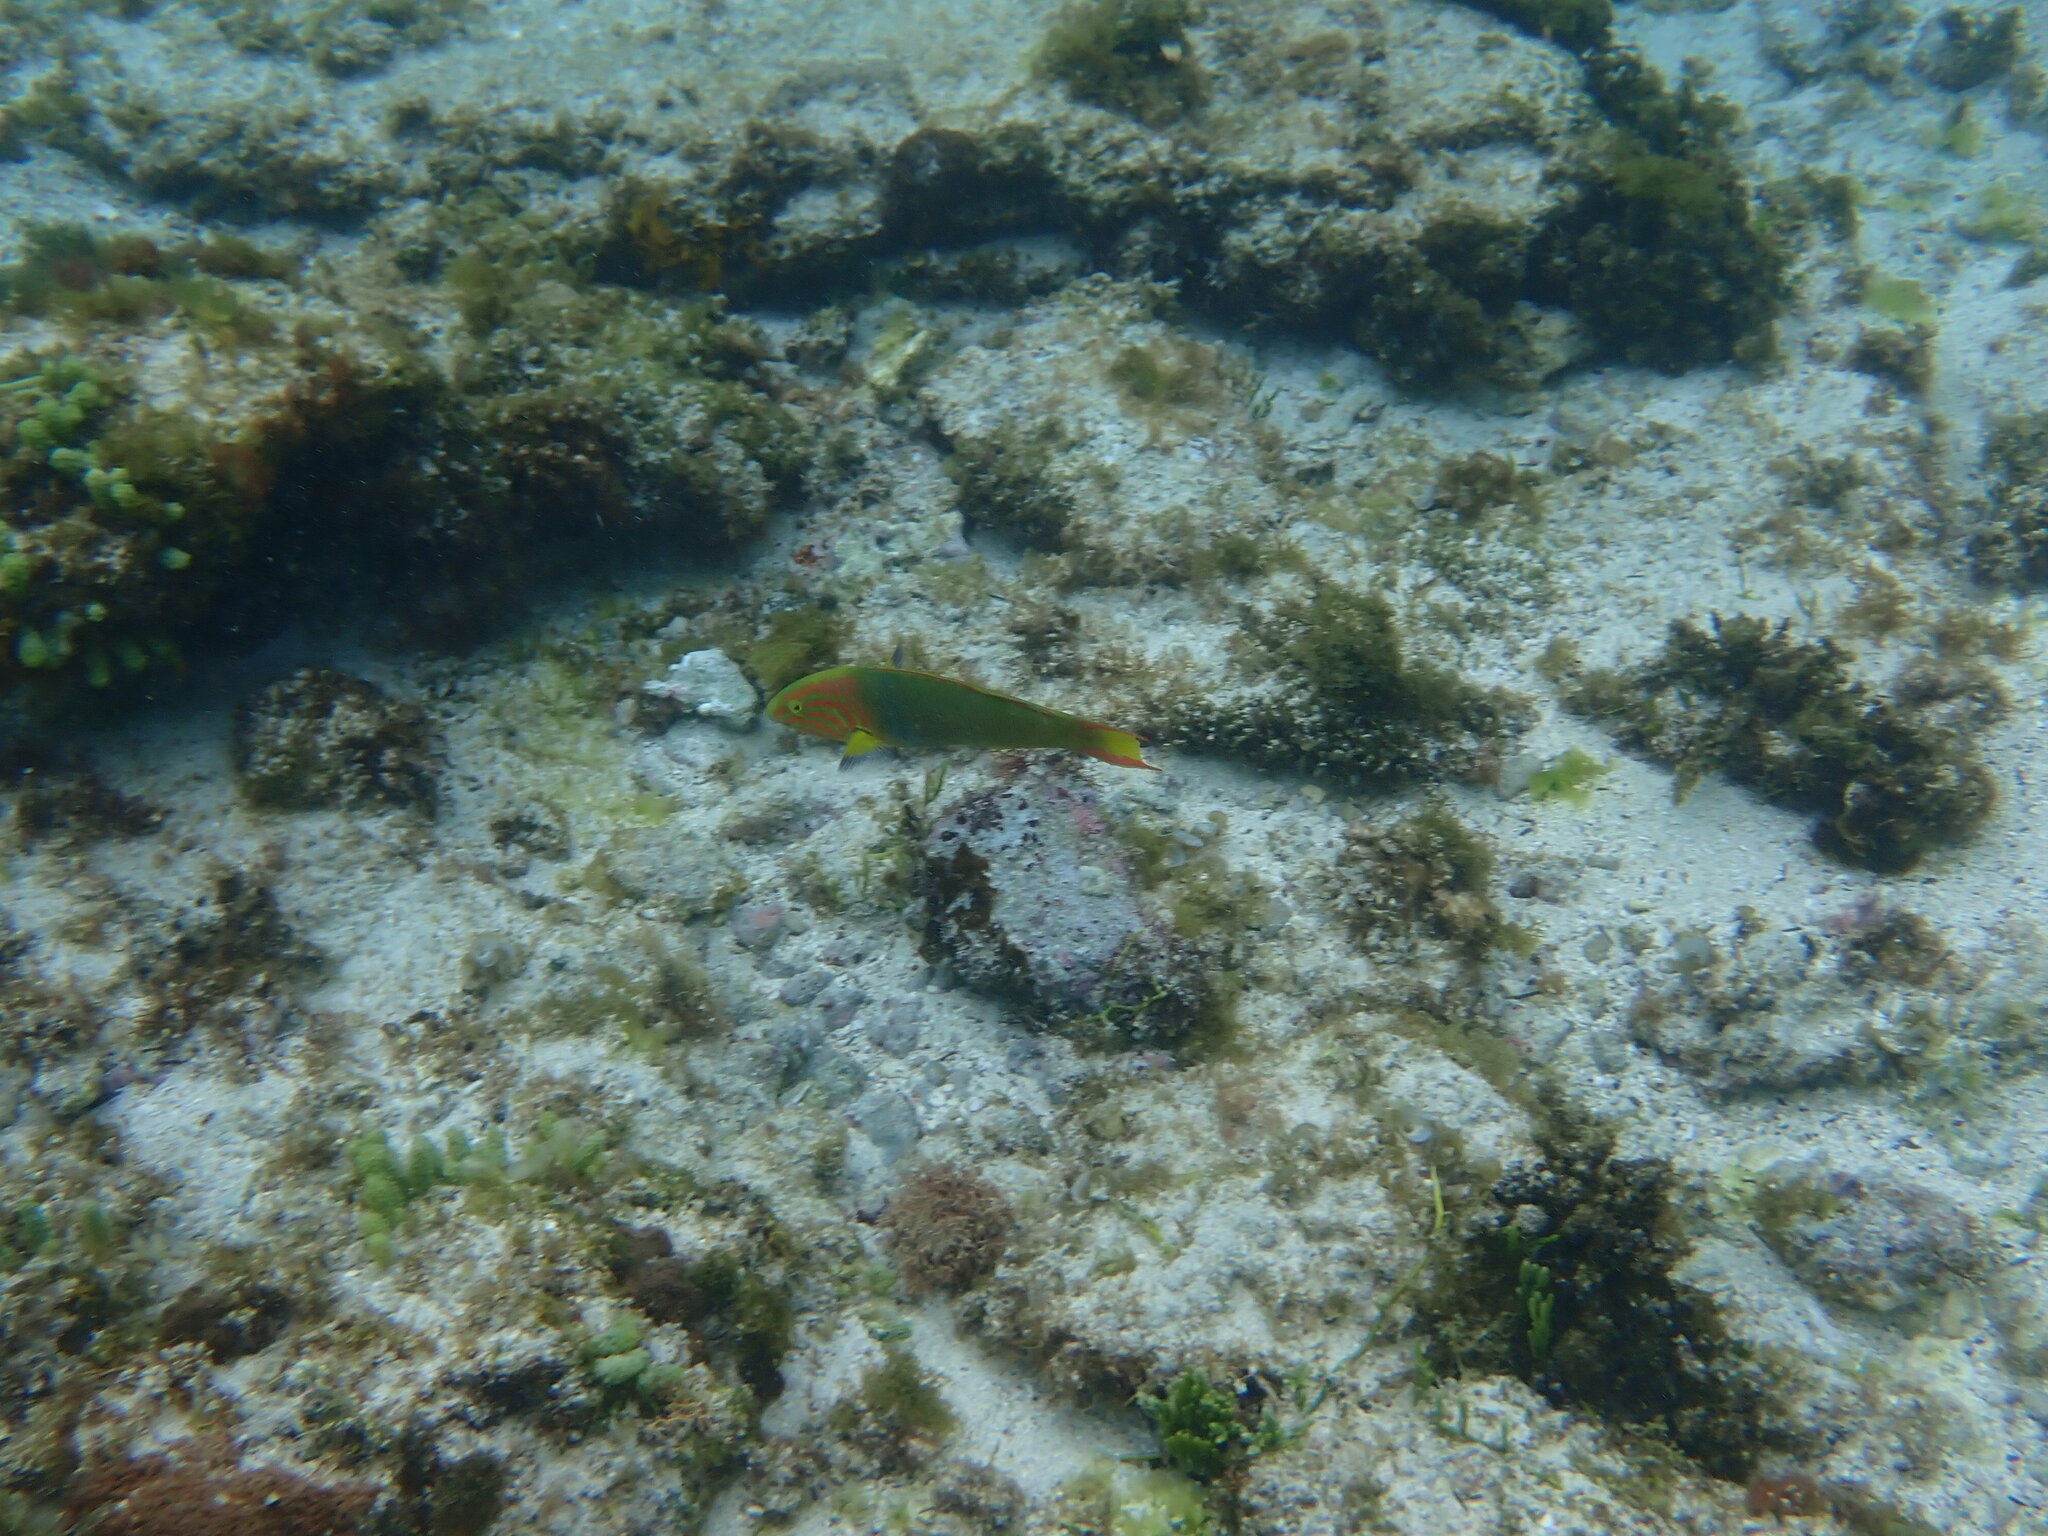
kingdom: Animalia
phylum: Chordata
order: Perciformes
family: Labridae
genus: Thalassoma
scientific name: Thalassoma lutescens
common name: Green moon wrasse
